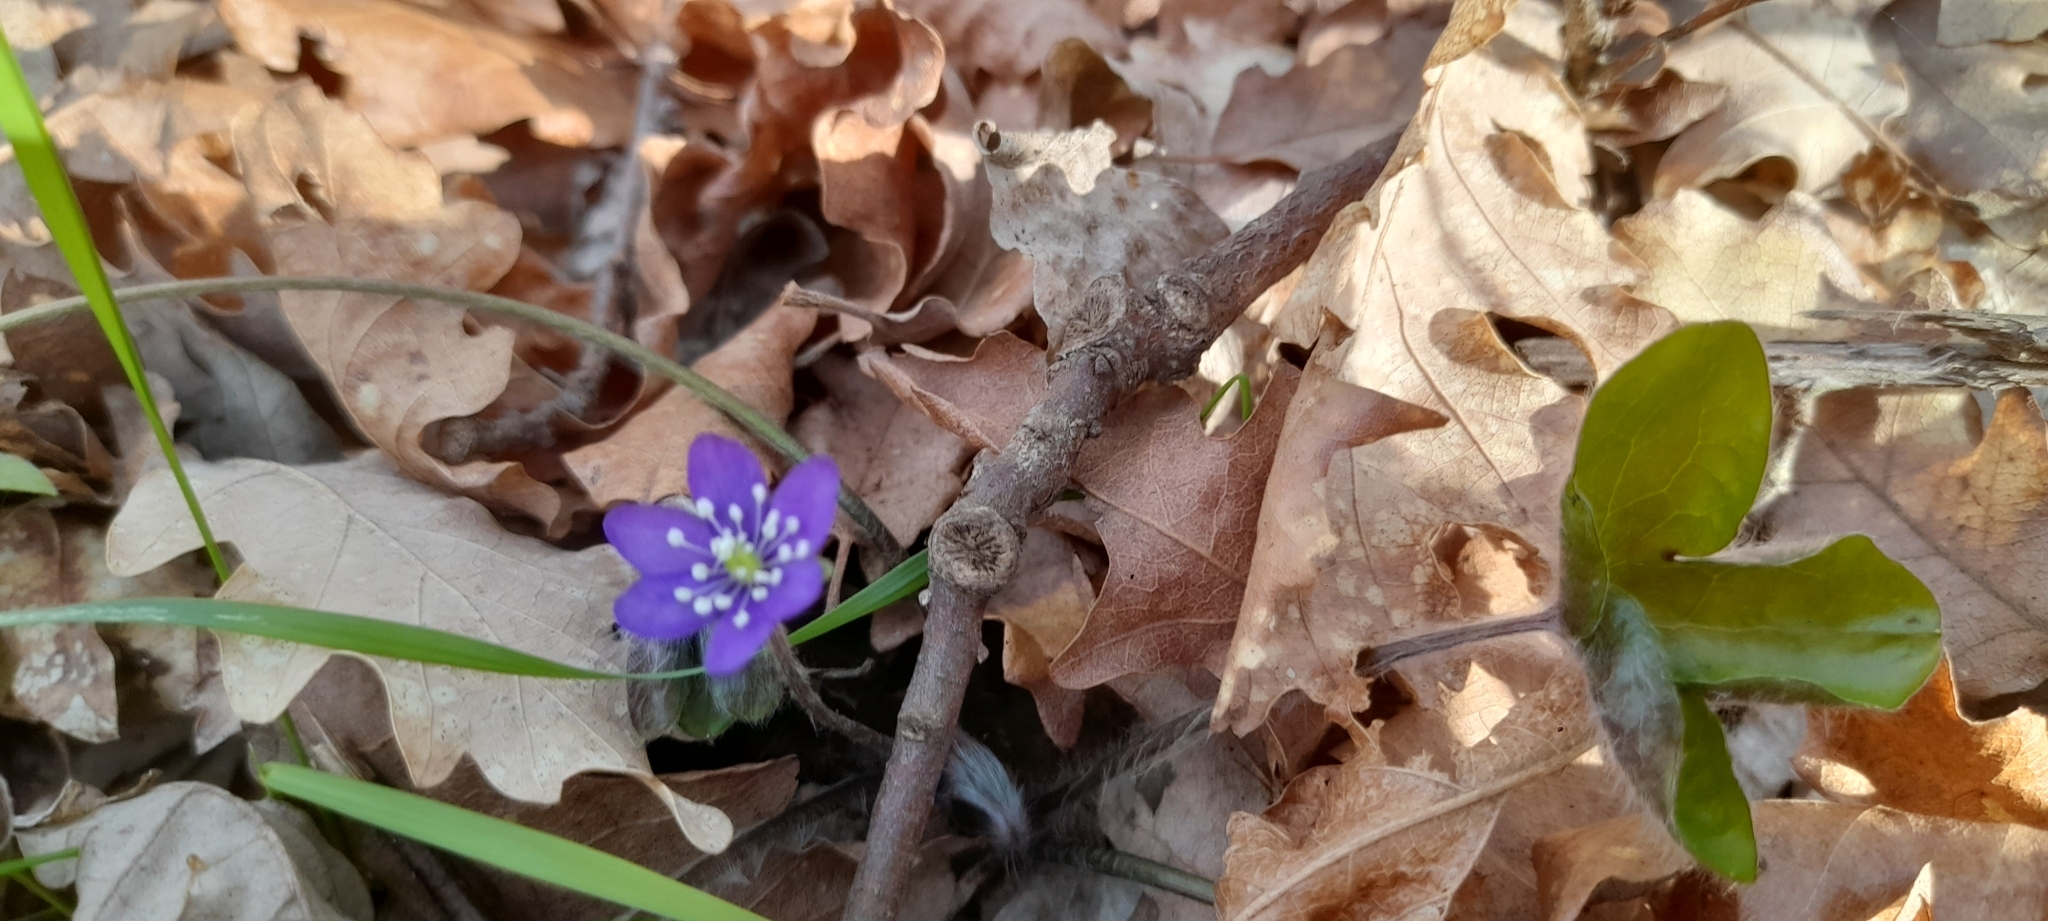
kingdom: Plantae
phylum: Tracheophyta
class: Magnoliopsida
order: Ranunculales
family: Ranunculaceae
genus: Hepatica
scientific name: Hepatica nobilis
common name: Liverleaf
